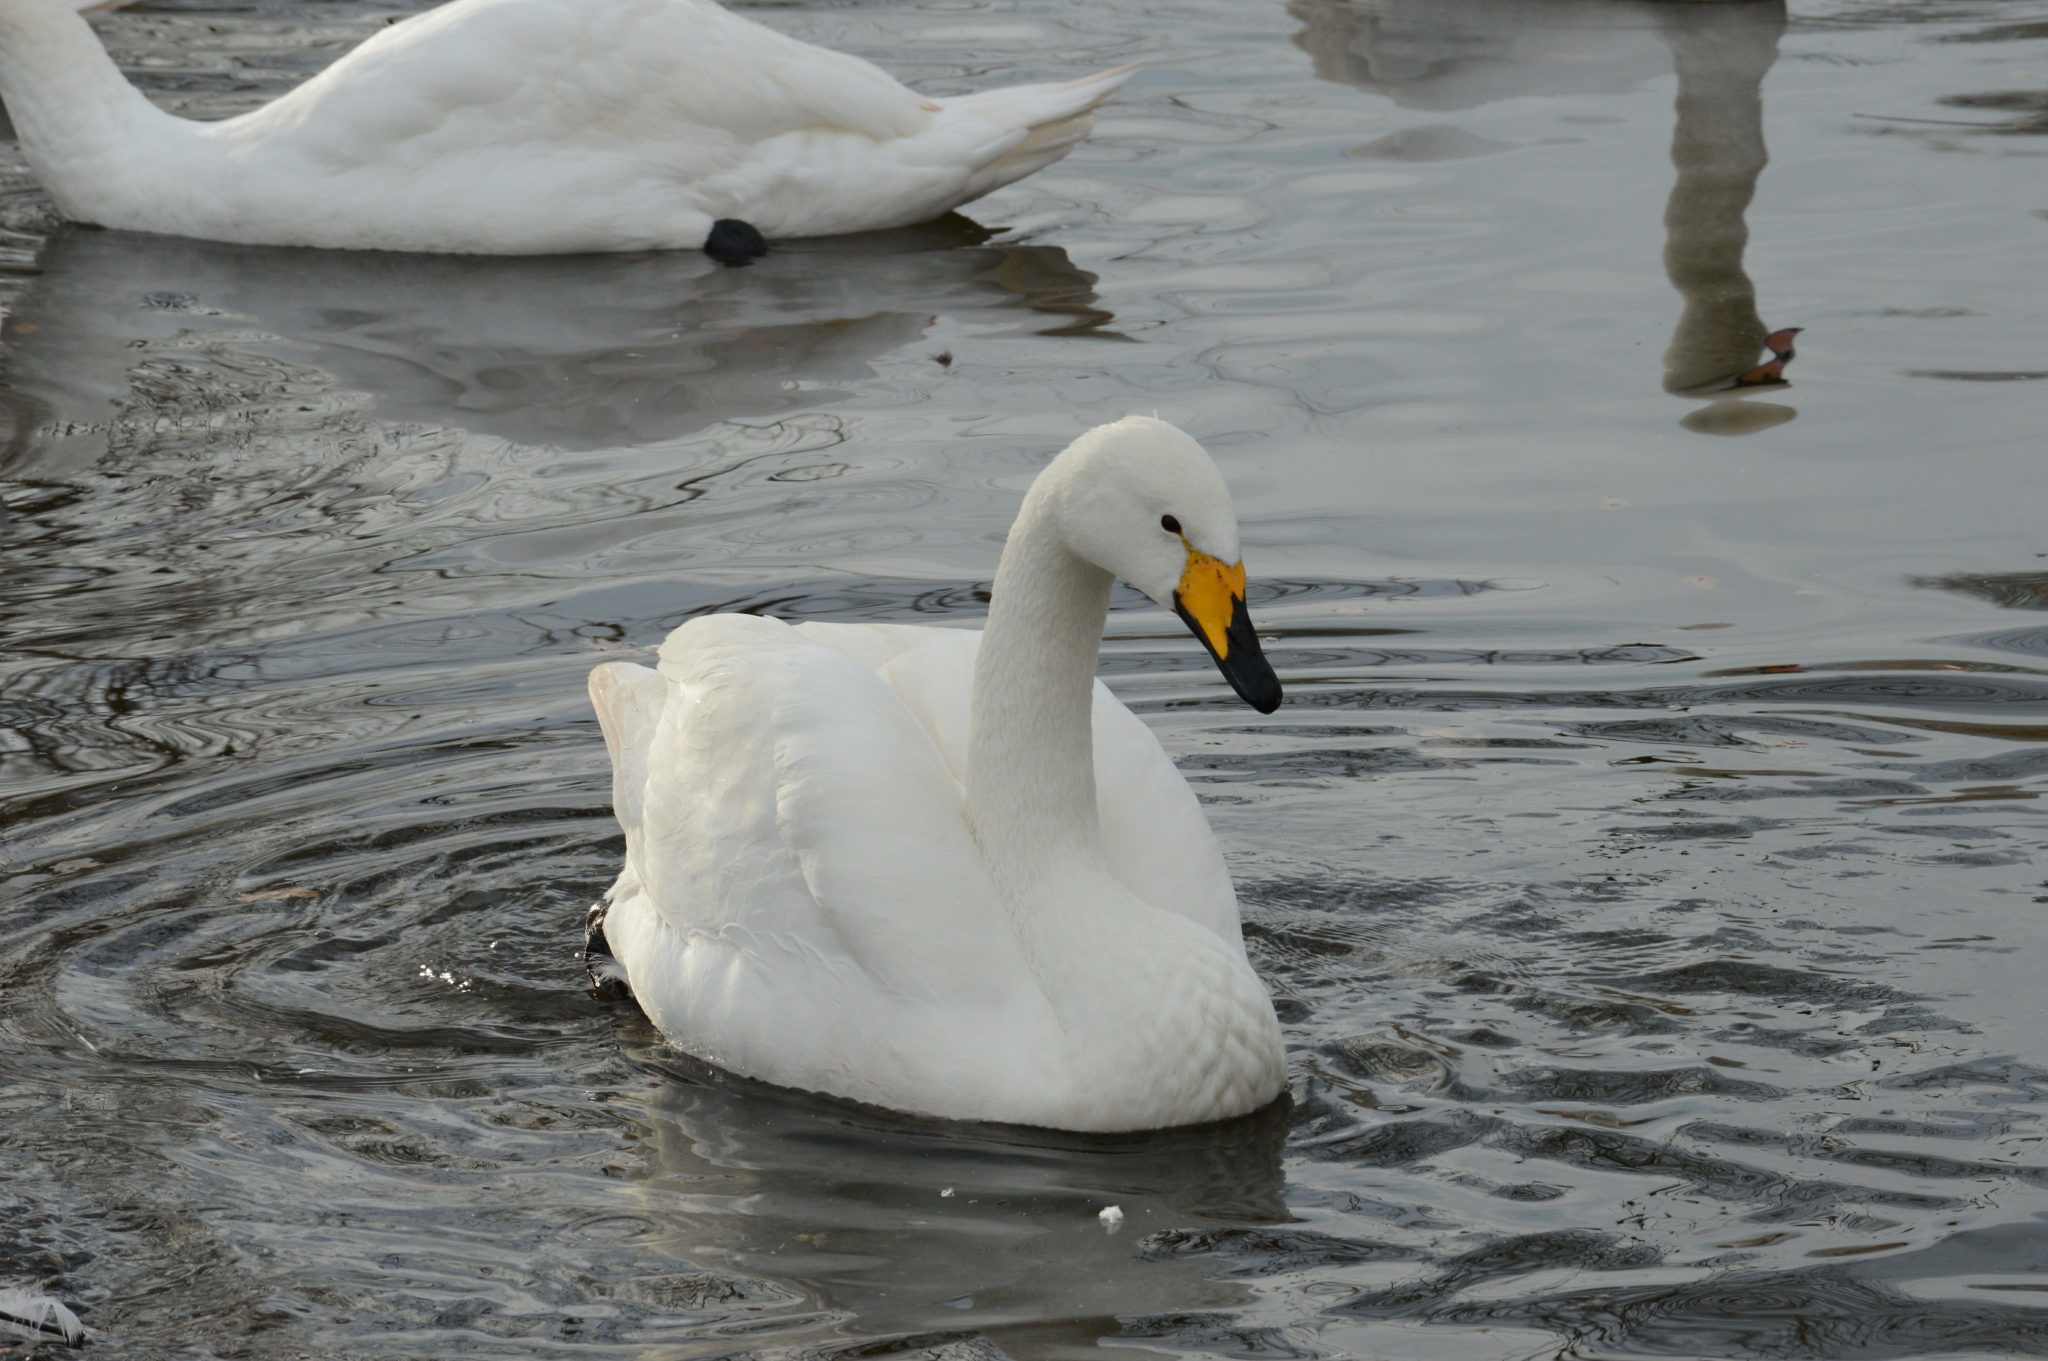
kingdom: Animalia
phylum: Chordata
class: Aves
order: Anseriformes
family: Anatidae
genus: Cygnus
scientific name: Cygnus cygnus
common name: Whooper swan
